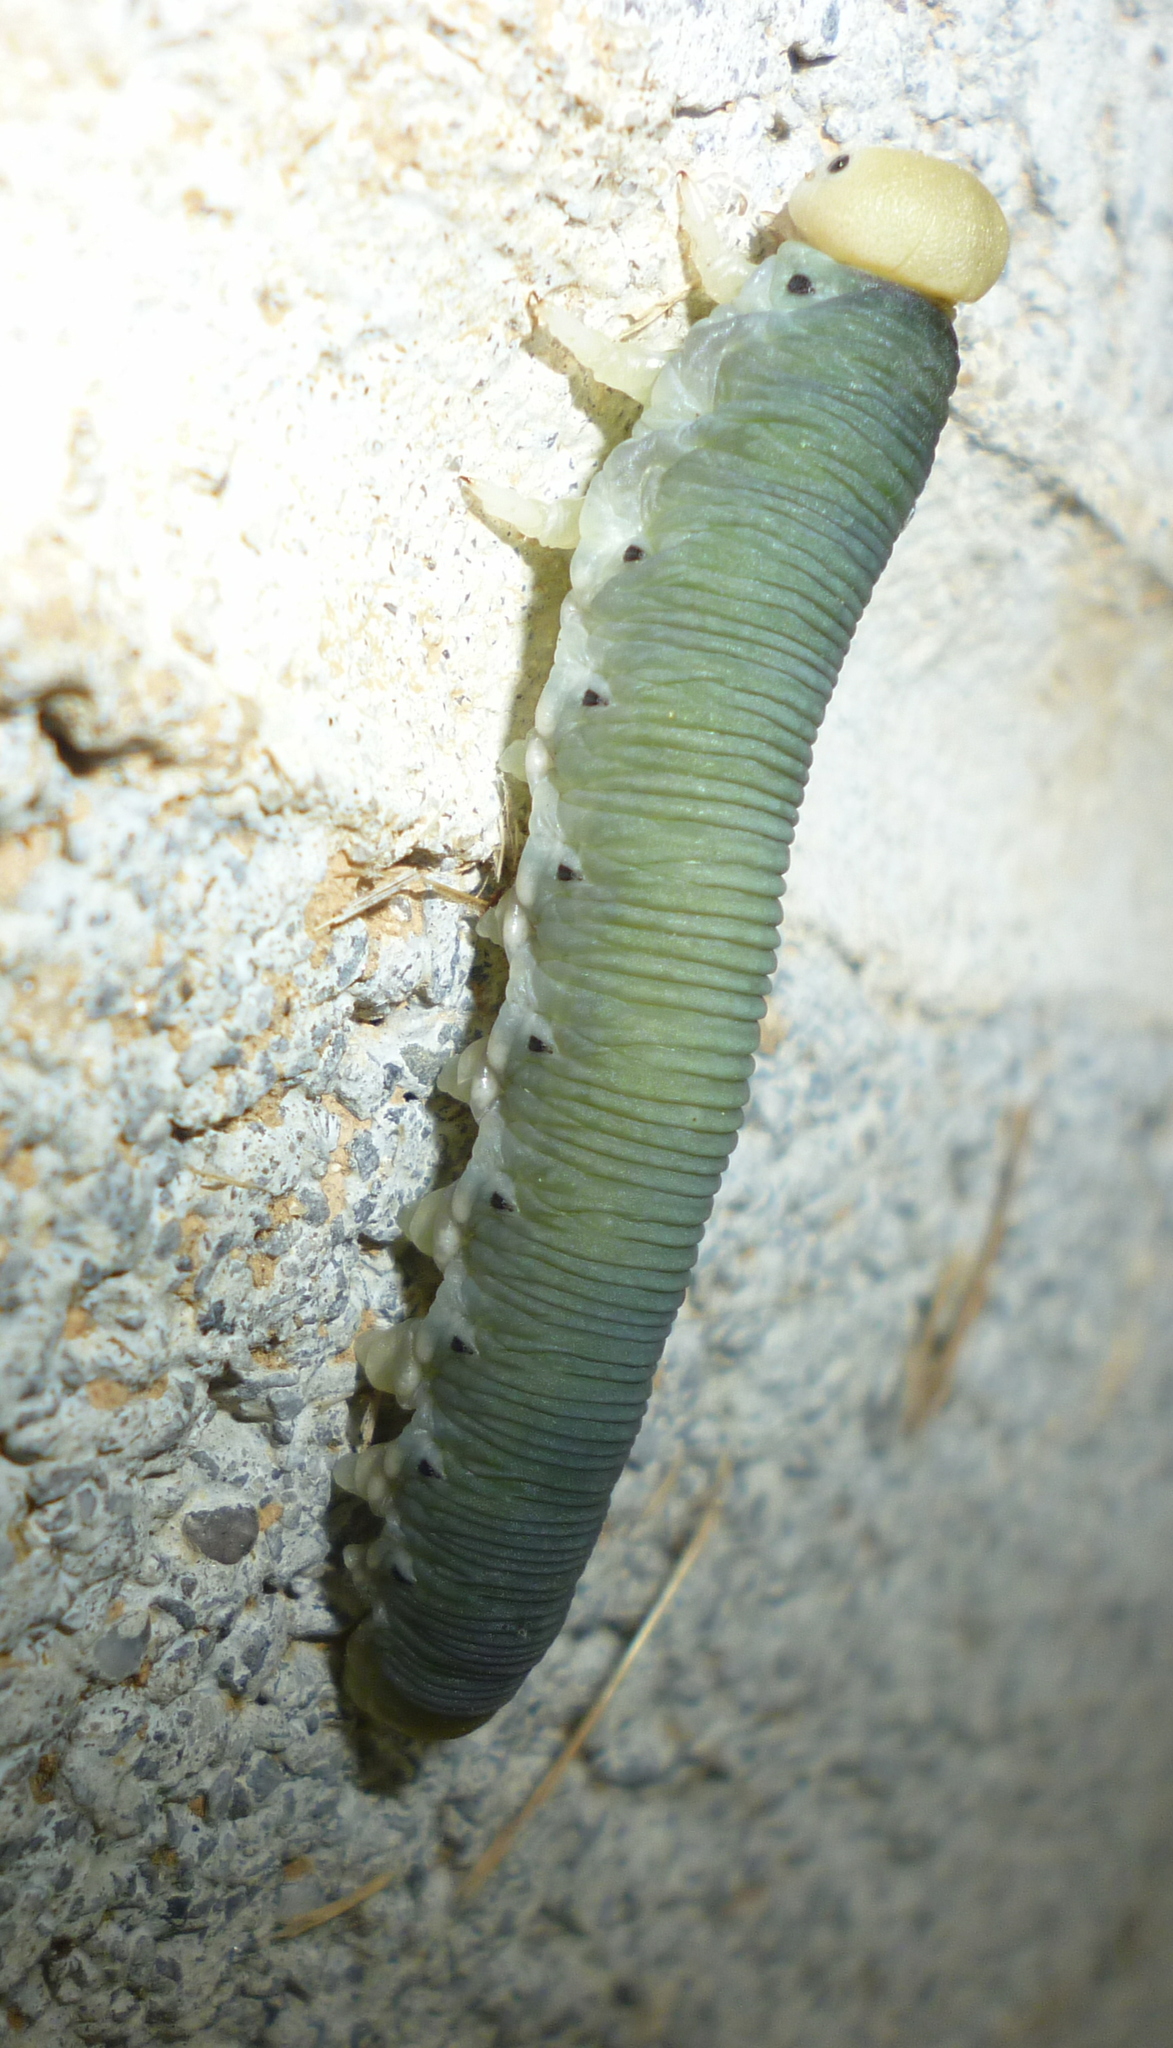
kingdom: Animalia
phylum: Arthropoda
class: Insecta
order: Hymenoptera
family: Cimbicidae
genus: Trichiosoma
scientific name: Trichiosoma triangulum
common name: Giant birch sawfly
